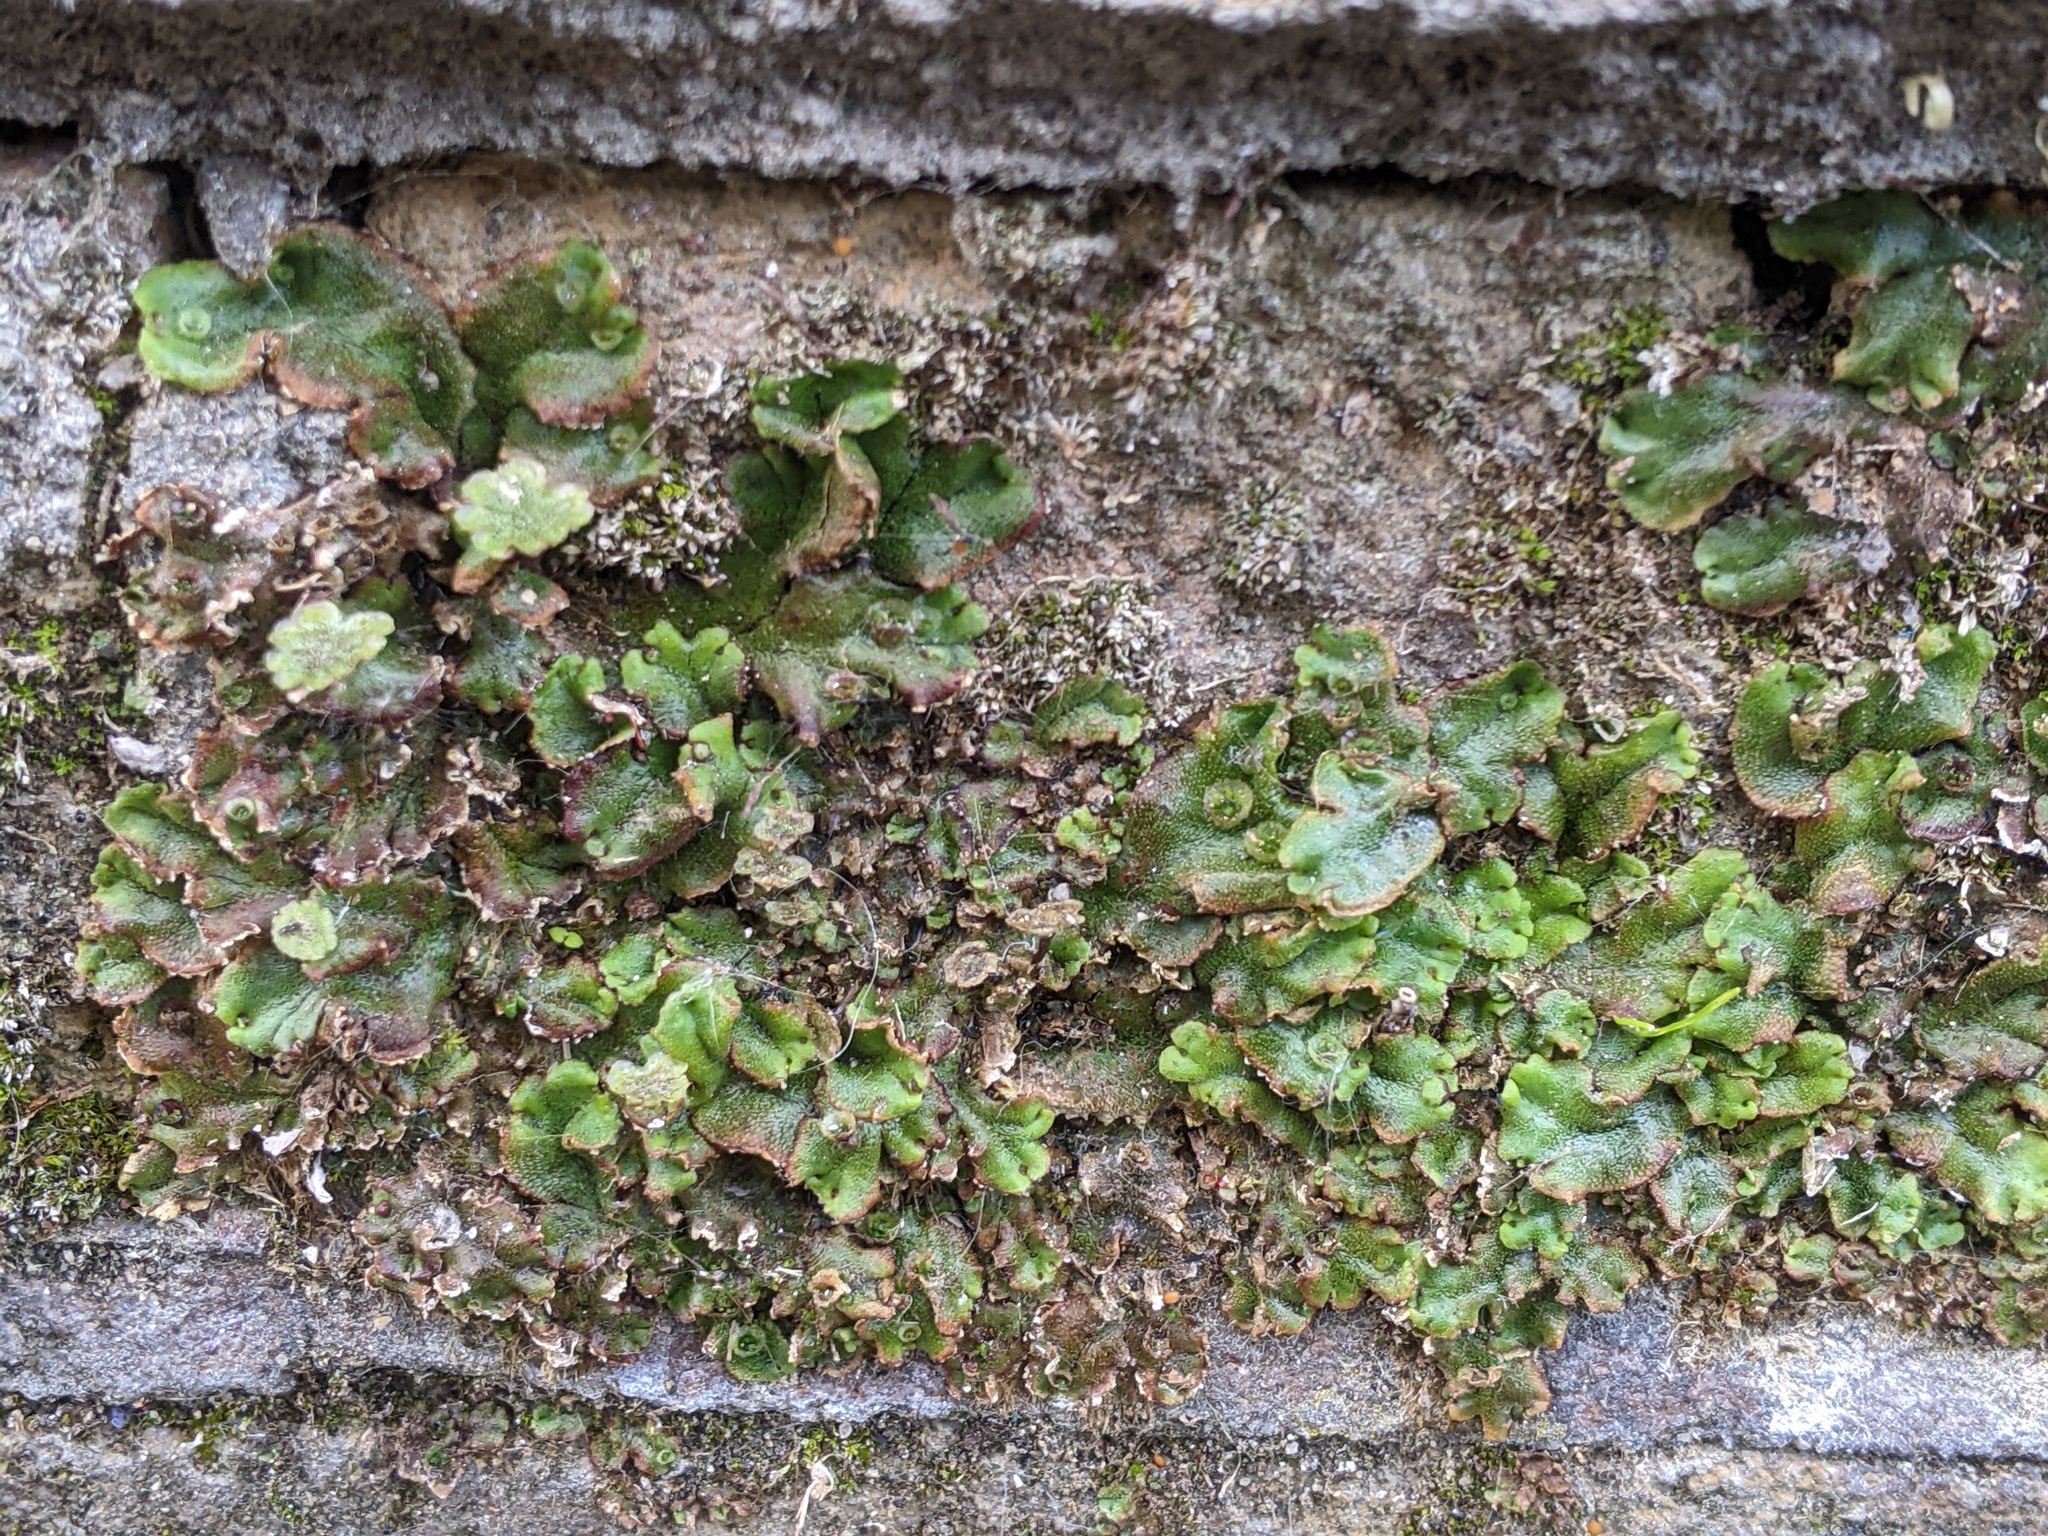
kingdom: Plantae
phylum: Marchantiophyta
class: Marchantiopsida
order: Marchantiales
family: Marchantiaceae
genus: Marchantia
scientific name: Marchantia polymorpha
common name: Common liverwort
